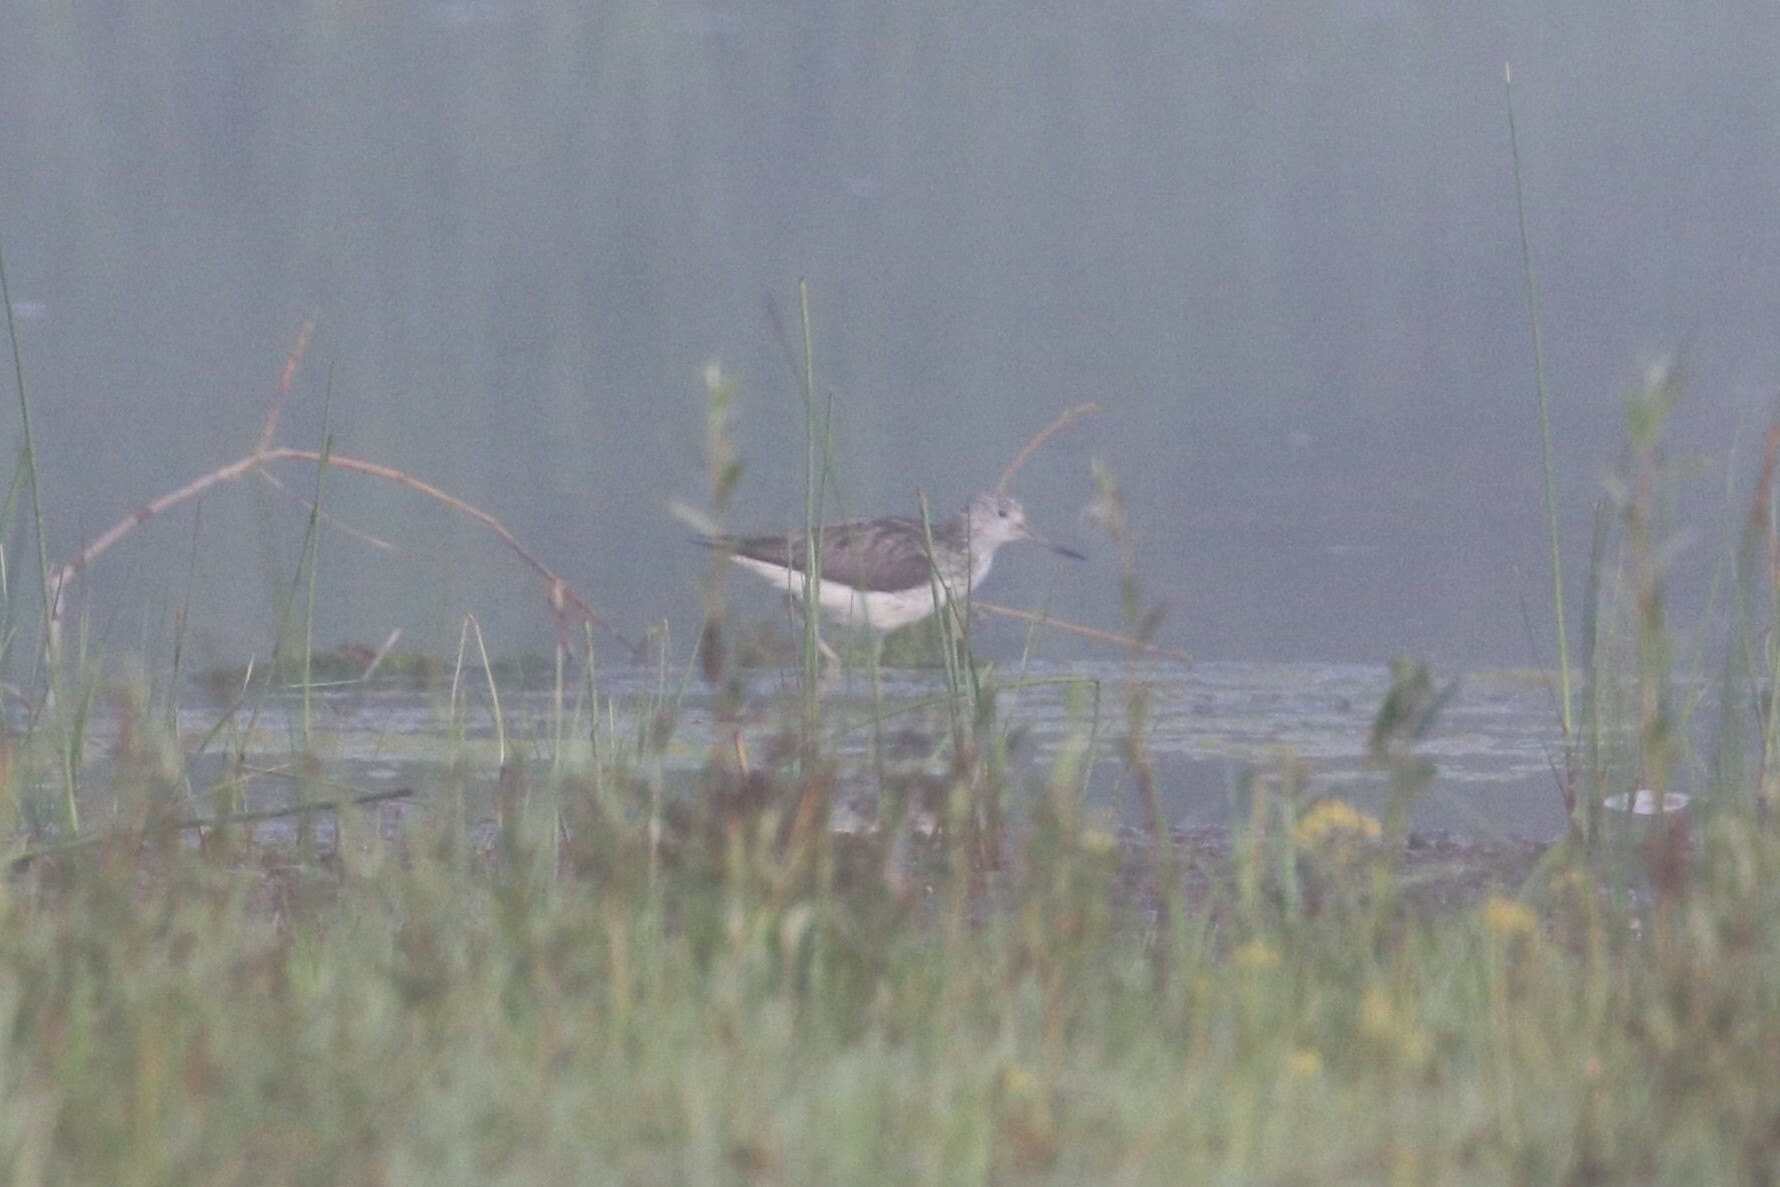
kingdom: Animalia
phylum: Chordata
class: Aves
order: Charadriiformes
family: Scolopacidae
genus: Tringa
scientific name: Tringa nebularia
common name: Common greenshank
